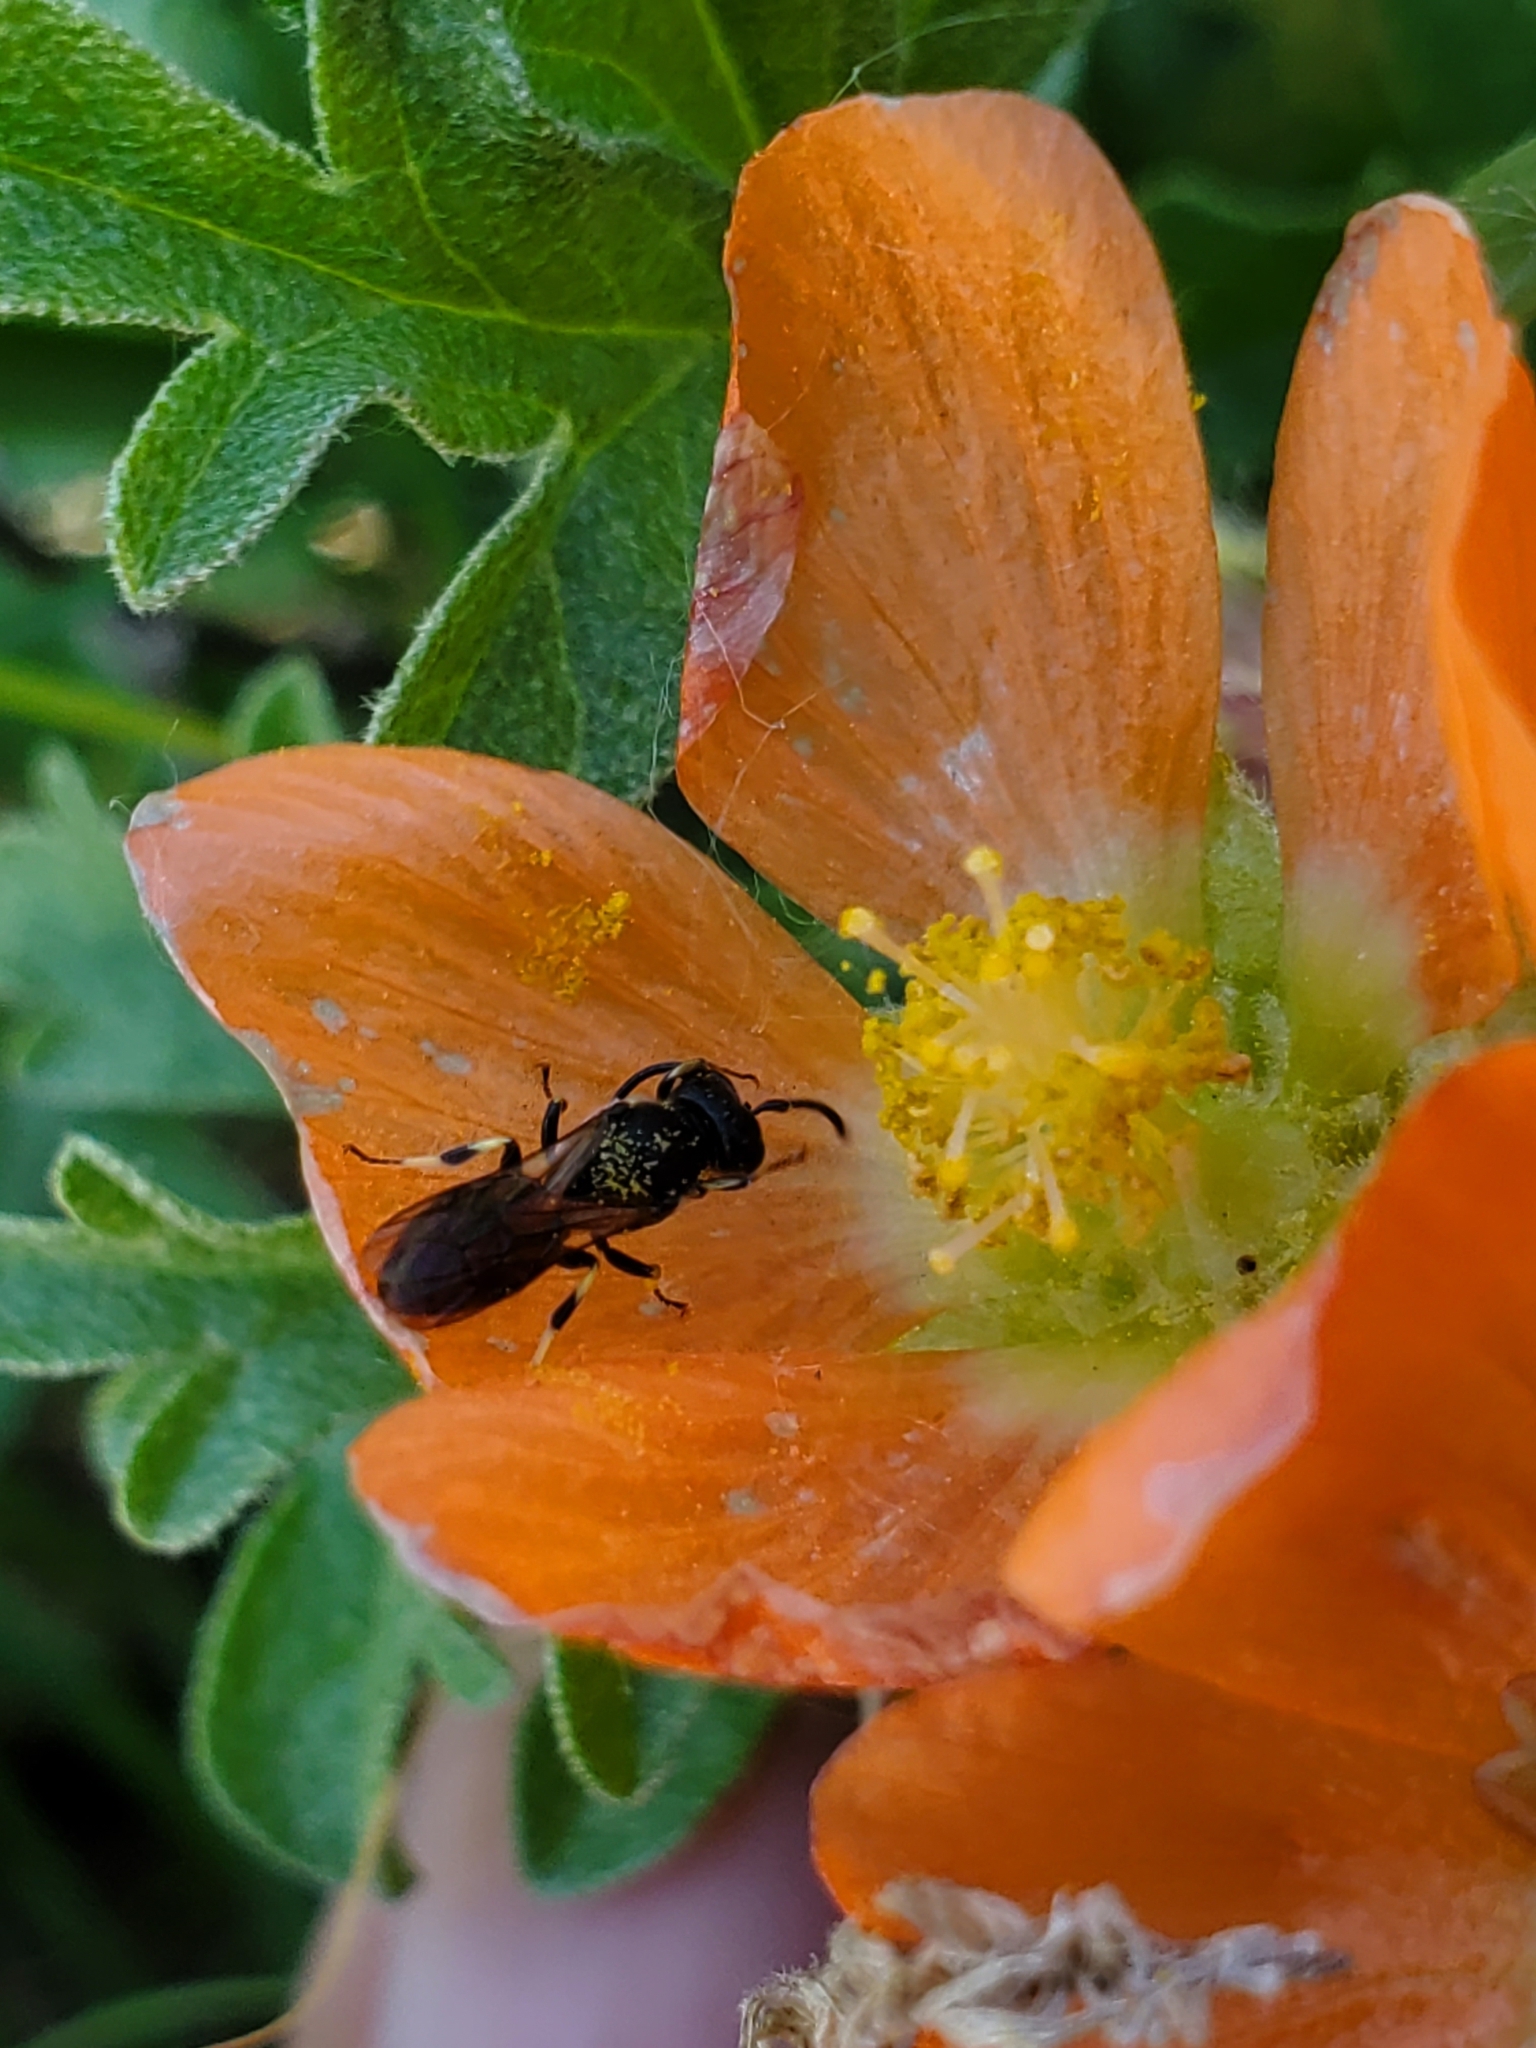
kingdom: Animalia
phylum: Arthropoda
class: Insecta
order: Hymenoptera
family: Colletidae
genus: Hylaeus
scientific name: Hylaeus annulatus
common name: Annulate masked bee
